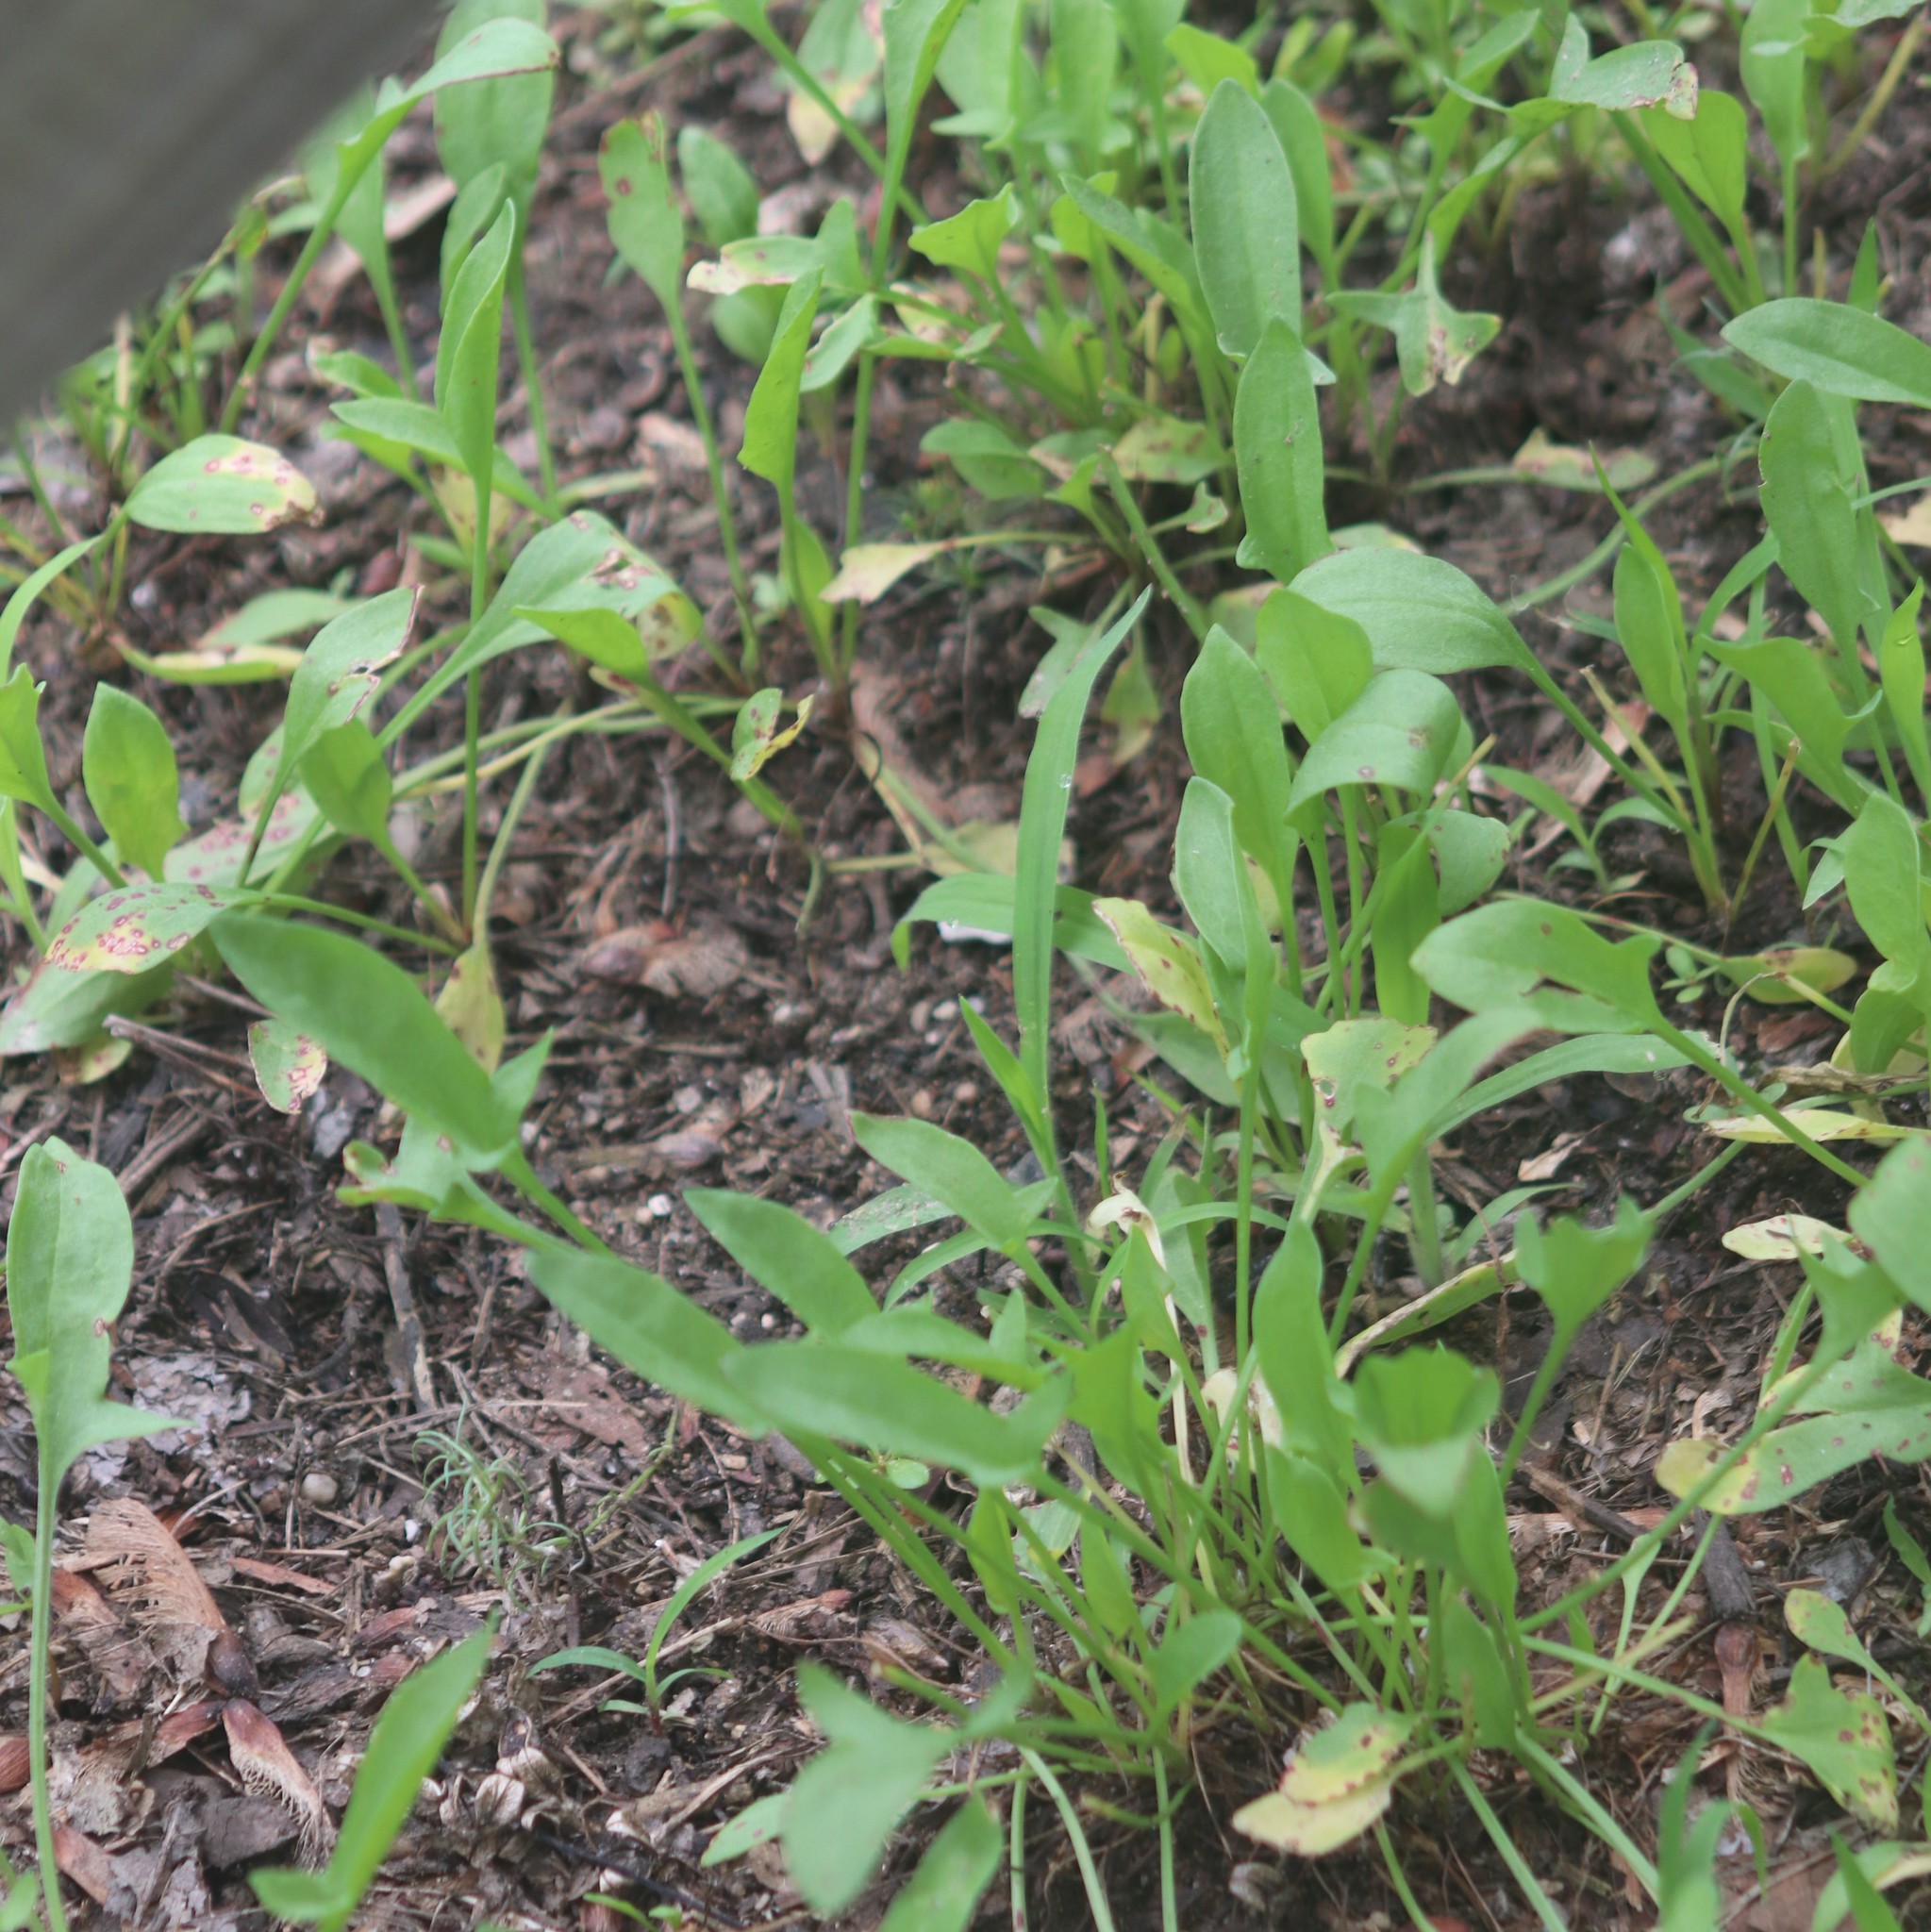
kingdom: Plantae
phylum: Tracheophyta
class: Magnoliopsida
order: Caryophyllales
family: Polygonaceae
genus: Rumex
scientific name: Rumex acetosella
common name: Common sheep sorrel
